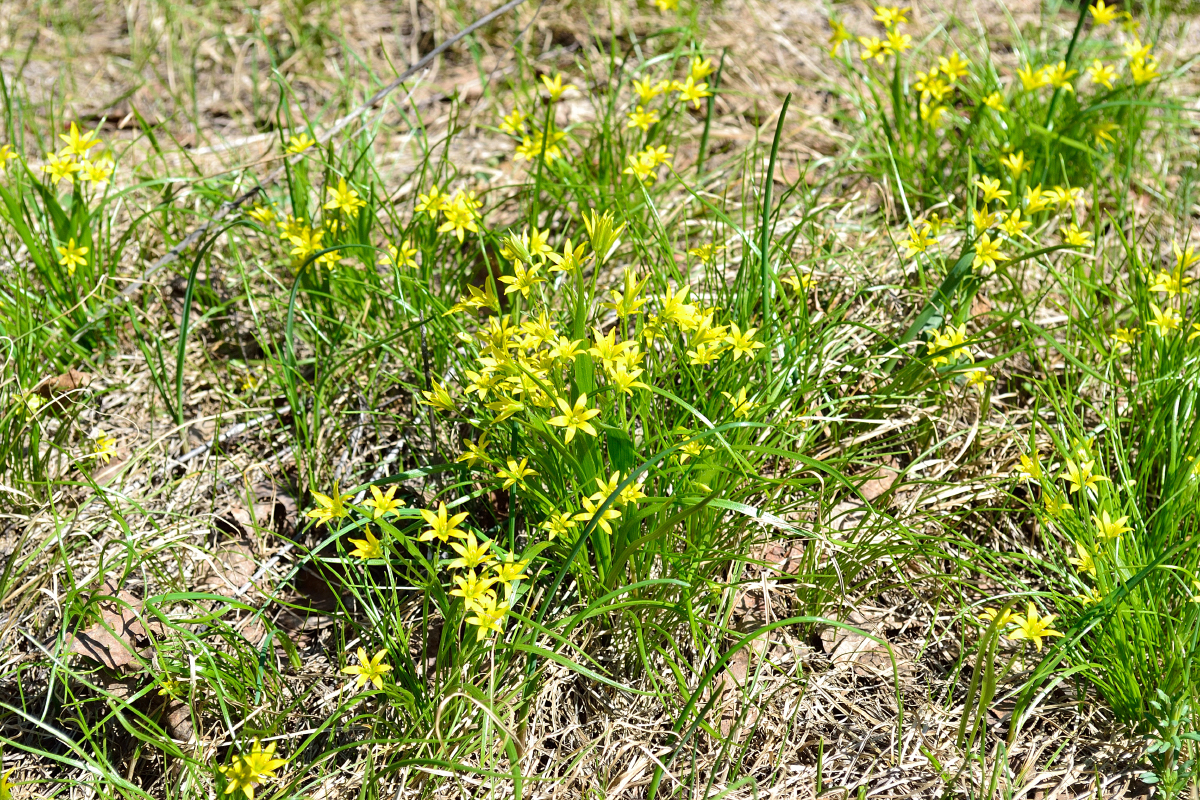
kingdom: Plantae
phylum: Tracheophyta
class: Liliopsida
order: Liliales
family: Liliaceae
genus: Gagea
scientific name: Gagea minima
